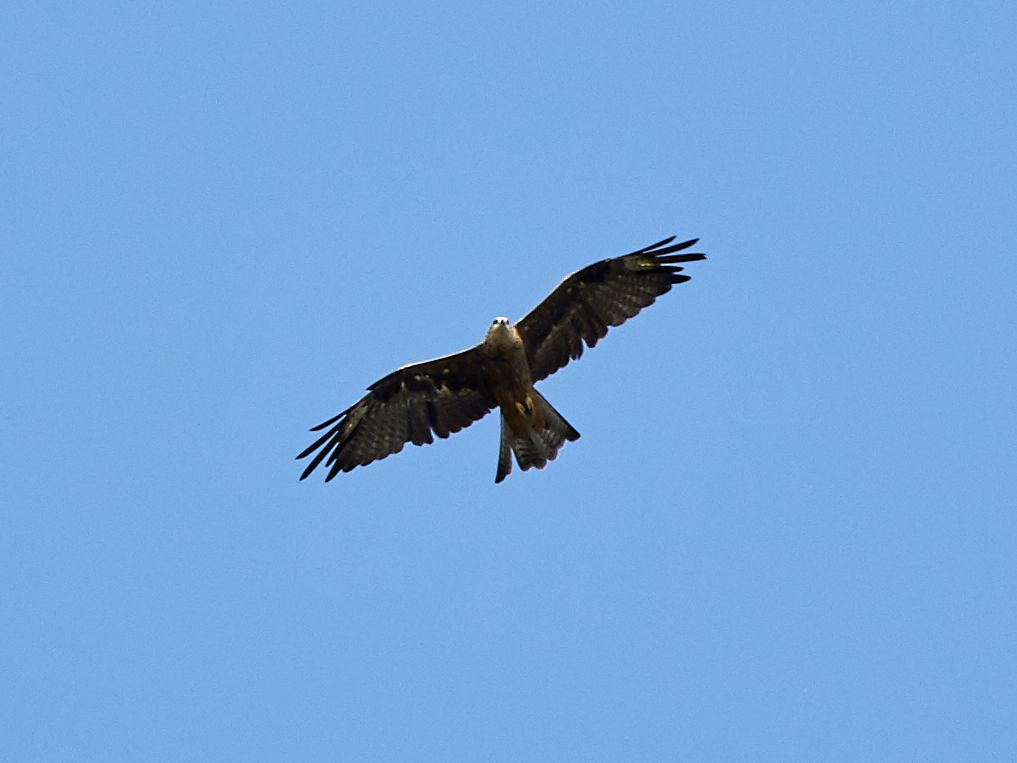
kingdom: Animalia
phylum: Chordata
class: Aves
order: Accipitriformes
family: Accipitridae
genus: Milvus
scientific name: Milvus migrans
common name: Black kite
